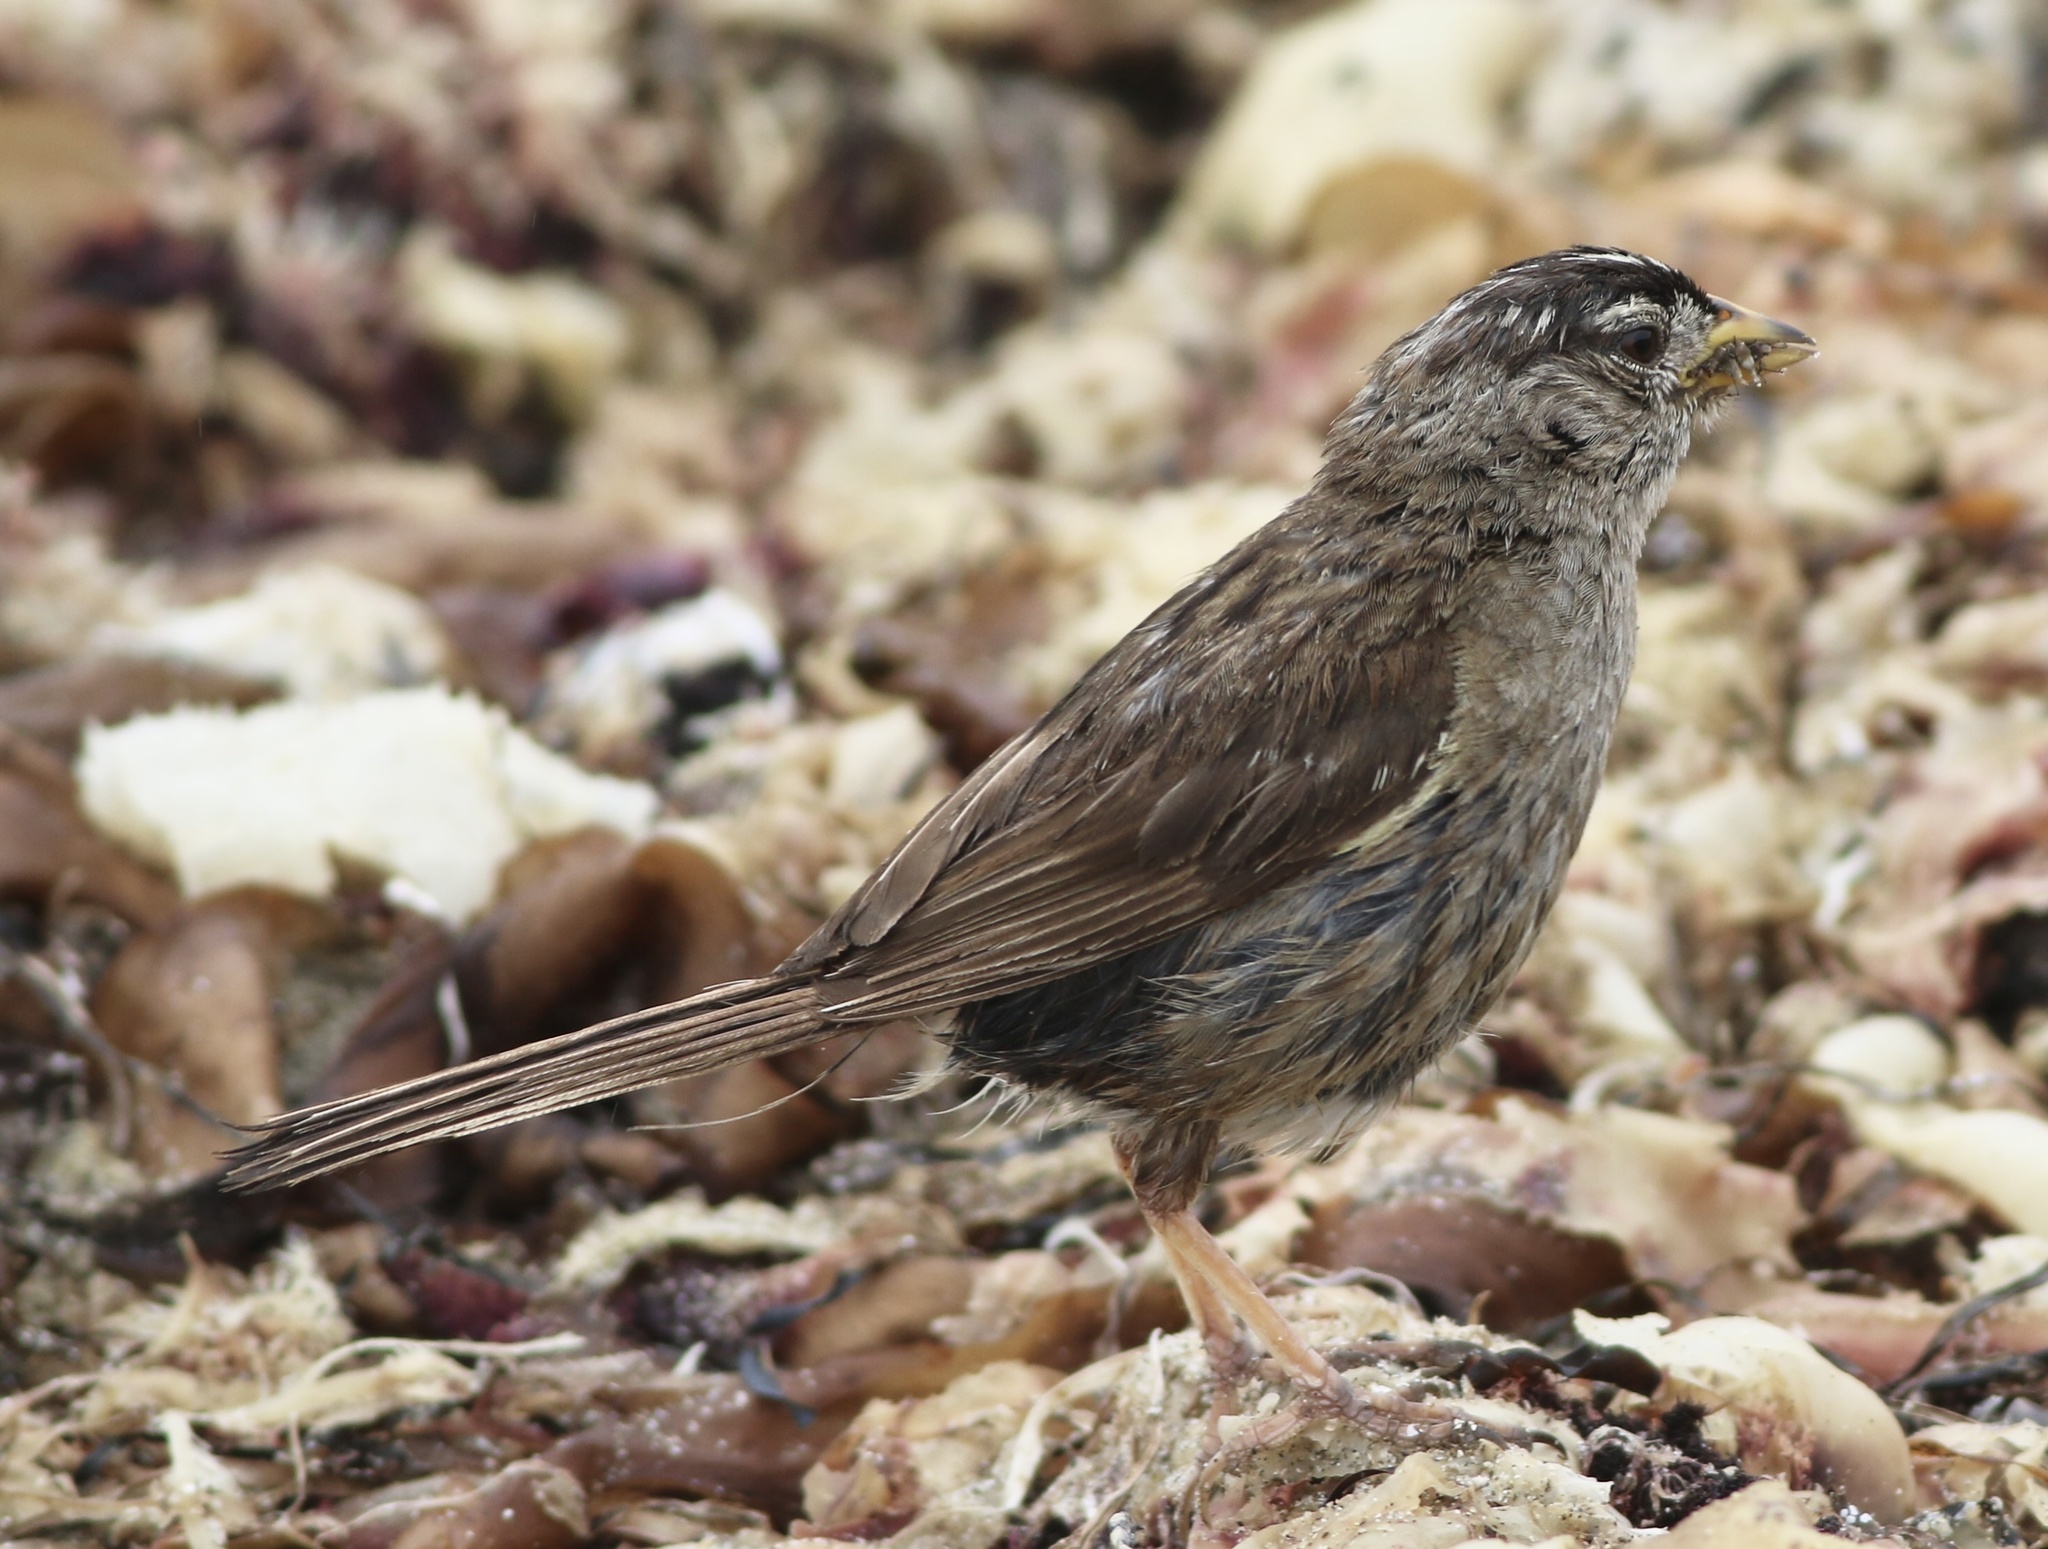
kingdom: Animalia
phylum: Chordata
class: Aves
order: Passeriformes
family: Passerellidae
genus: Zonotrichia
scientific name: Zonotrichia leucophrys
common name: White-crowned sparrow
